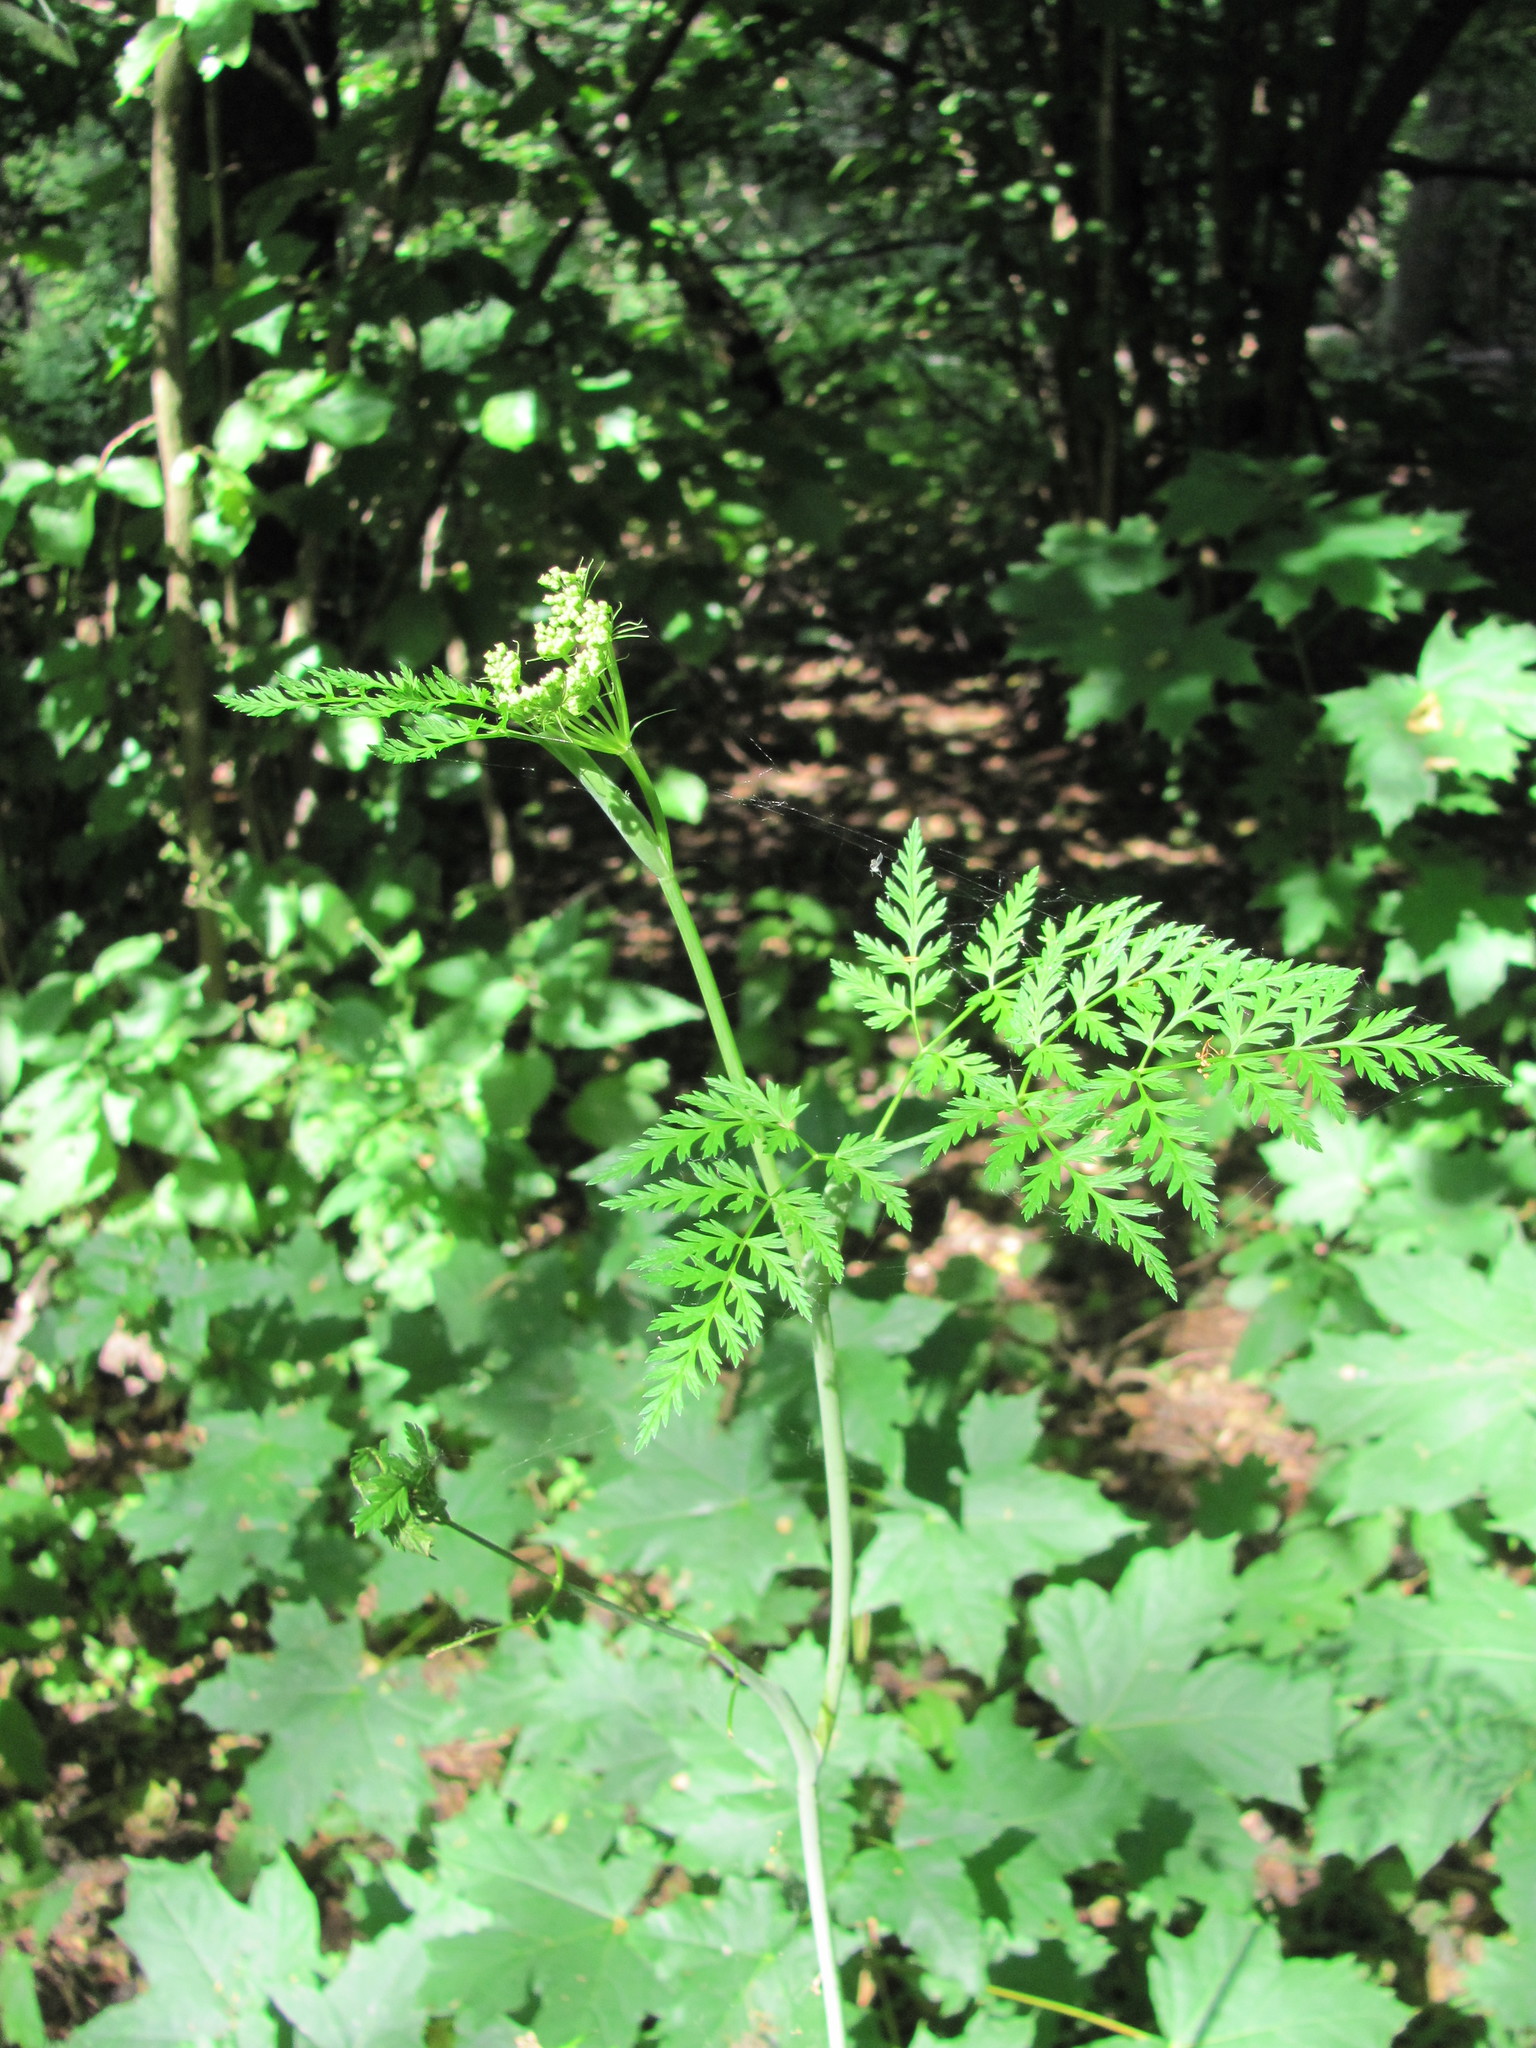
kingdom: Plantae
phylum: Tracheophyta
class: Magnoliopsida
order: Apiales
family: Apiaceae
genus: Conioselinum
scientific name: Conioselinum tataricum
